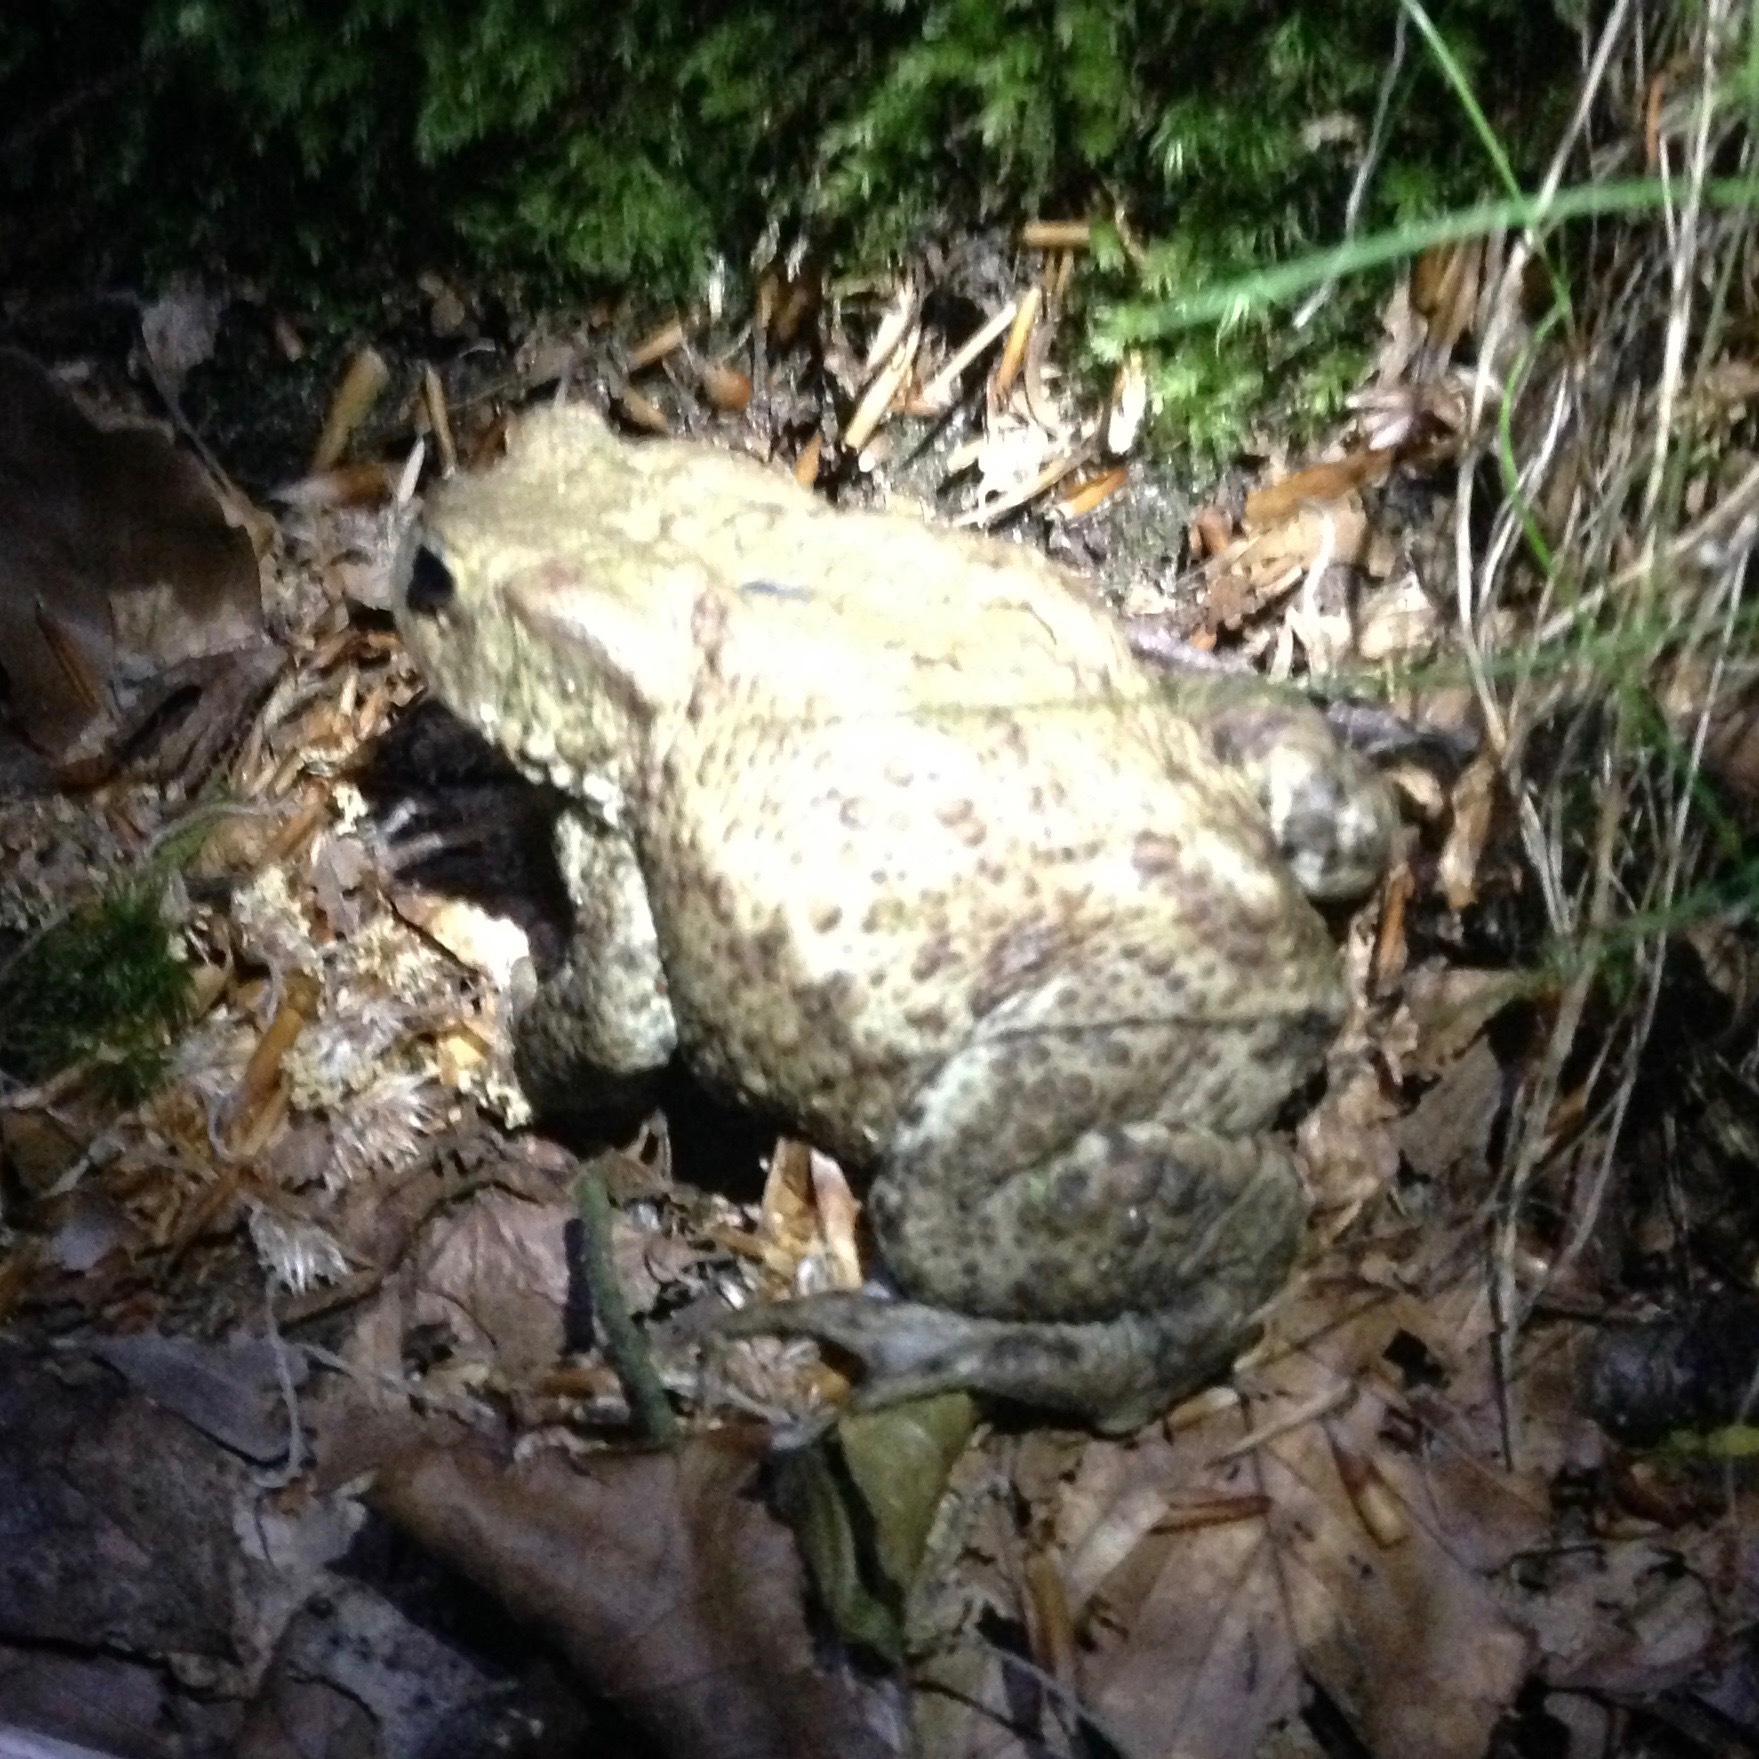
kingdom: Animalia
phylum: Chordata
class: Amphibia
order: Anura
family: Bufonidae
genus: Bufo
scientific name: Bufo bufo
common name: Common toad
